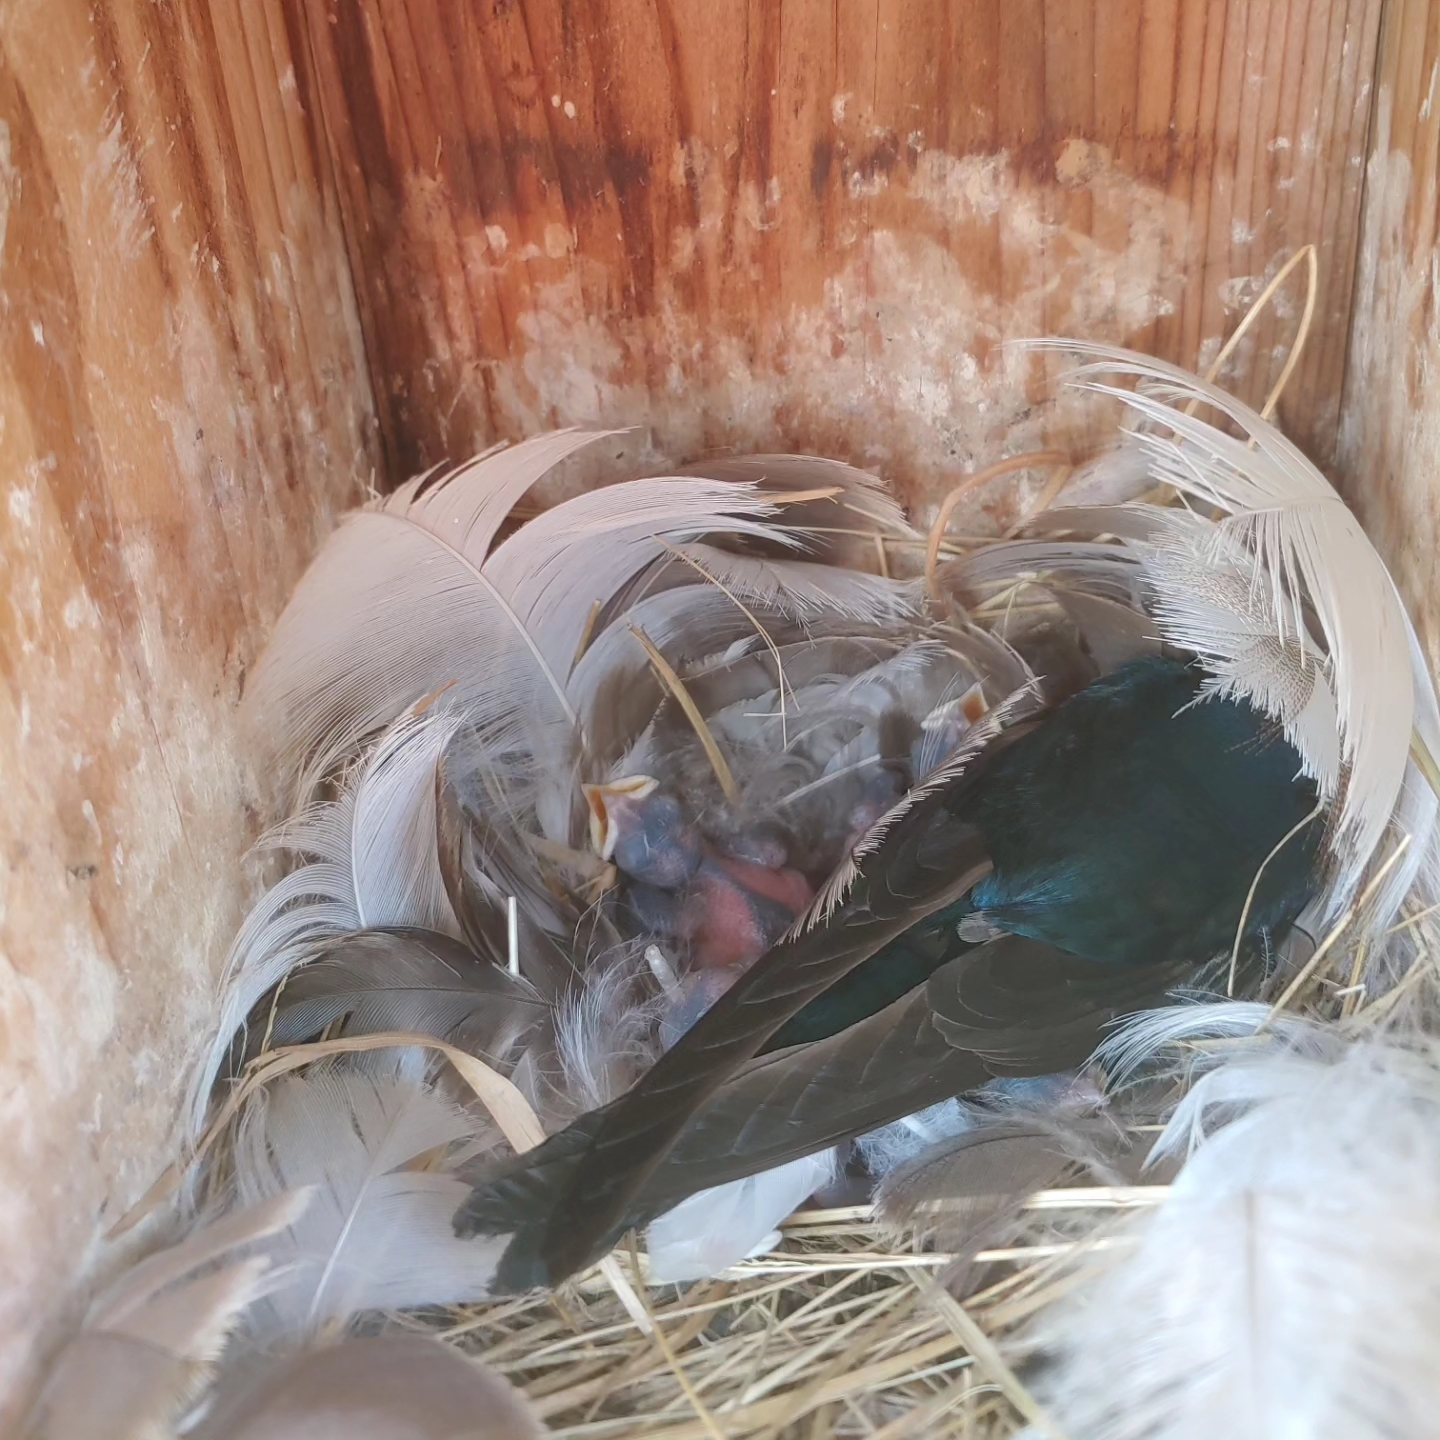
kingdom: Animalia
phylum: Chordata
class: Aves
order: Passeriformes
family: Hirundinidae
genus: Tachycineta
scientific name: Tachycineta bicolor
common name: Tree swallow
